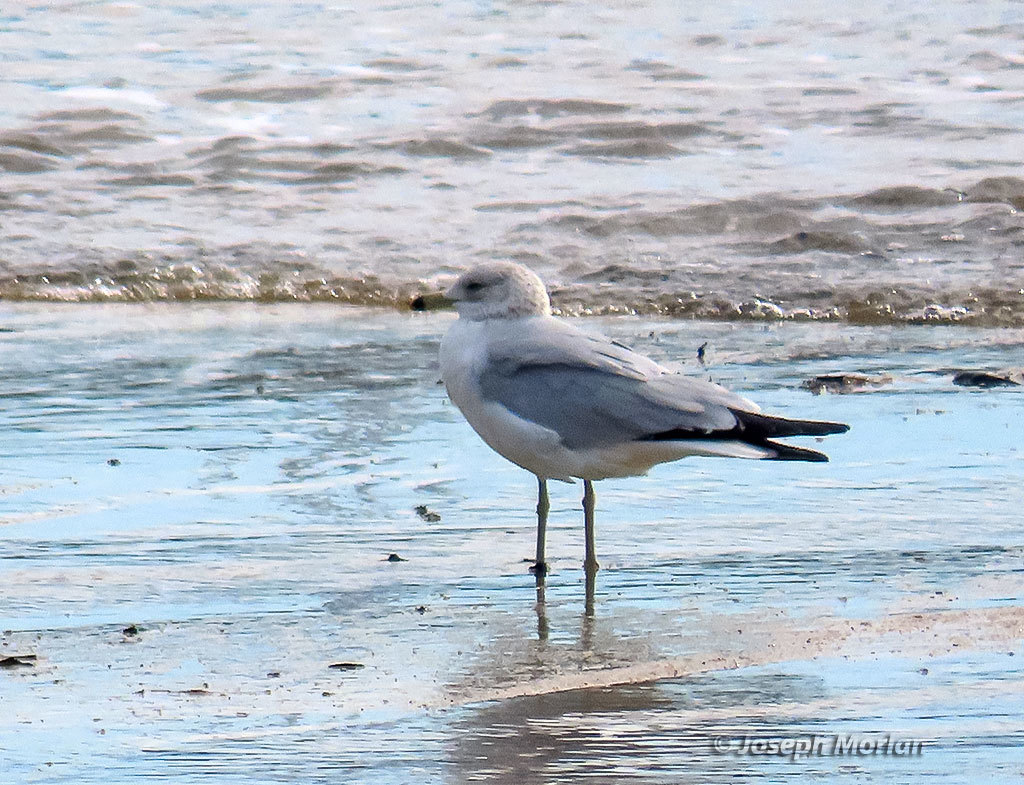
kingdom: Animalia
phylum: Chordata
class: Aves
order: Charadriiformes
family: Laridae
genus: Larus
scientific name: Larus delawarensis
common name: Ring-billed gull
